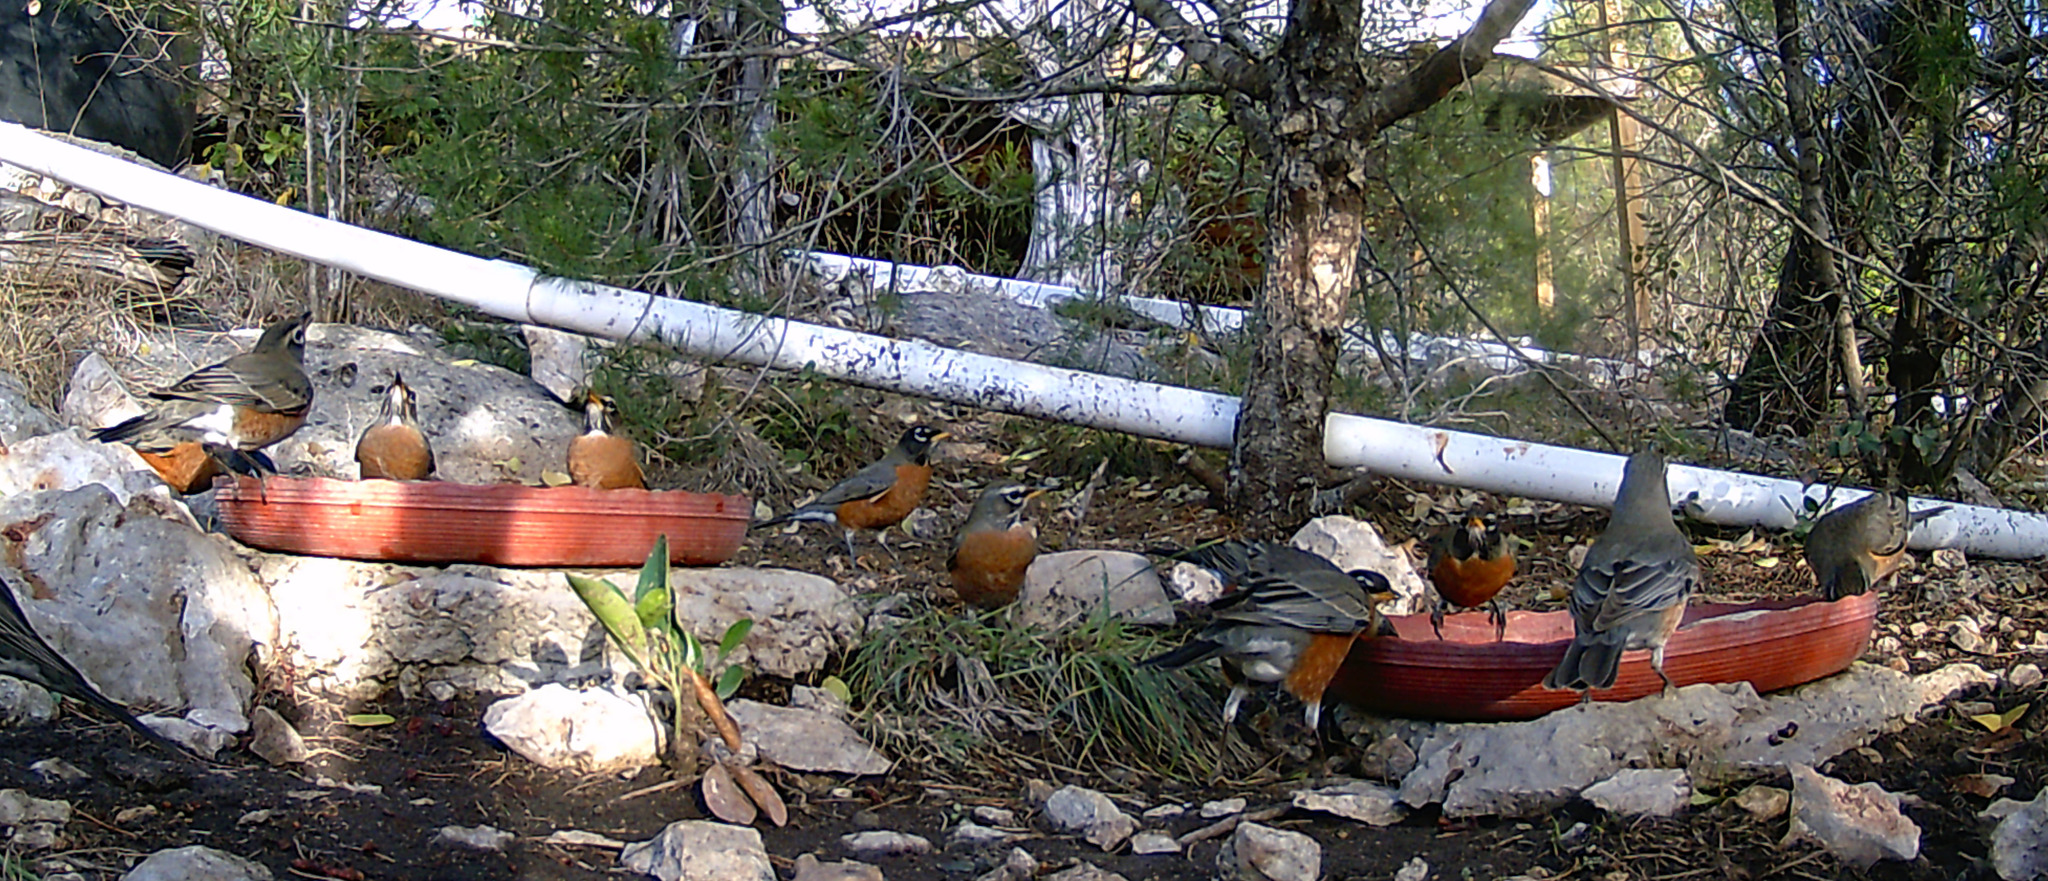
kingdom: Animalia
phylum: Chordata
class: Aves
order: Passeriformes
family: Turdidae
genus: Turdus
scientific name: Turdus migratorius
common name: American robin
